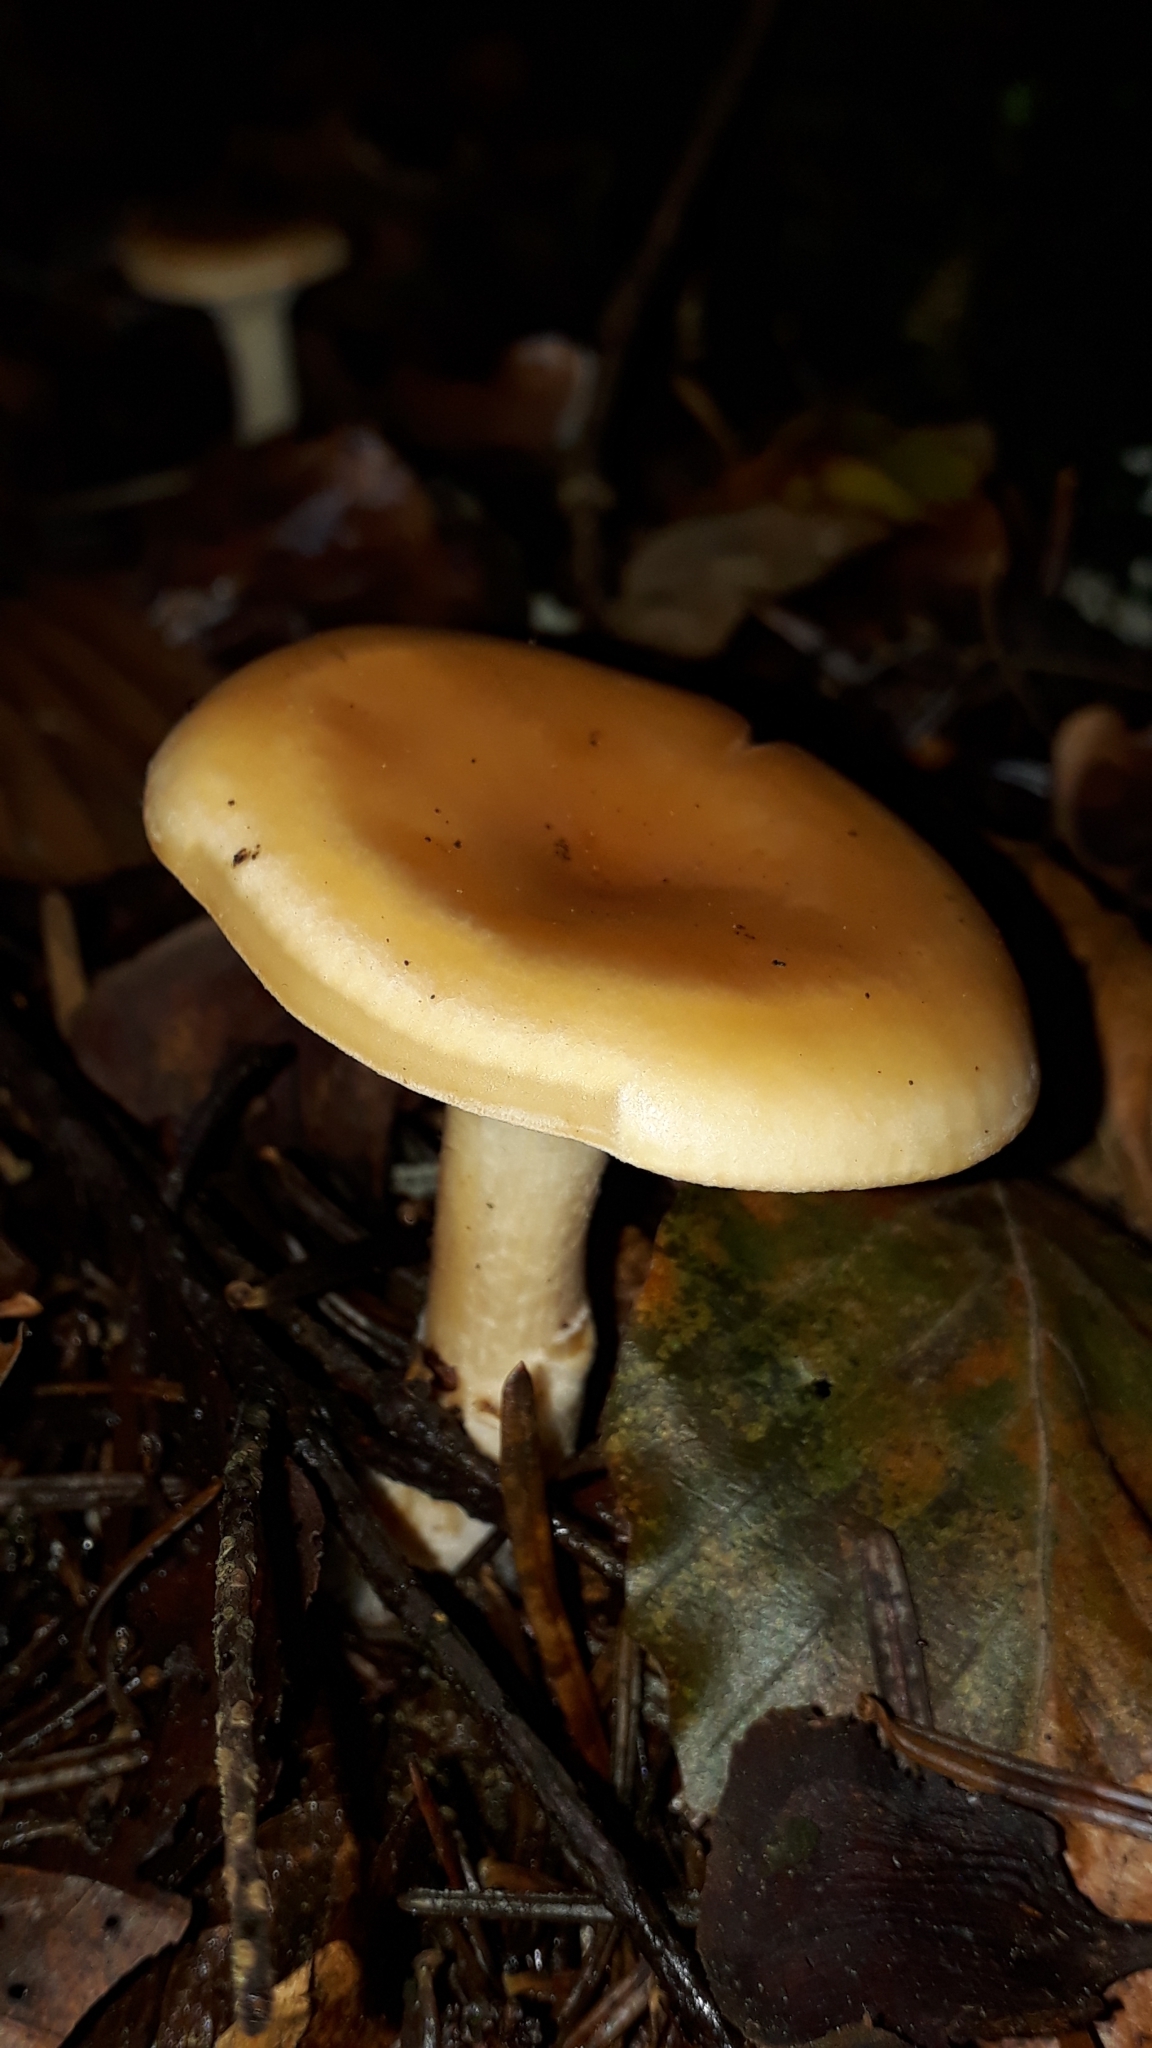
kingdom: Fungi
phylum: Basidiomycota
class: Agaricomycetes
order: Agaricales
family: Tricholomataceae
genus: Paralepista
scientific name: Paralepista flaccida
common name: Tawny funnel cap
